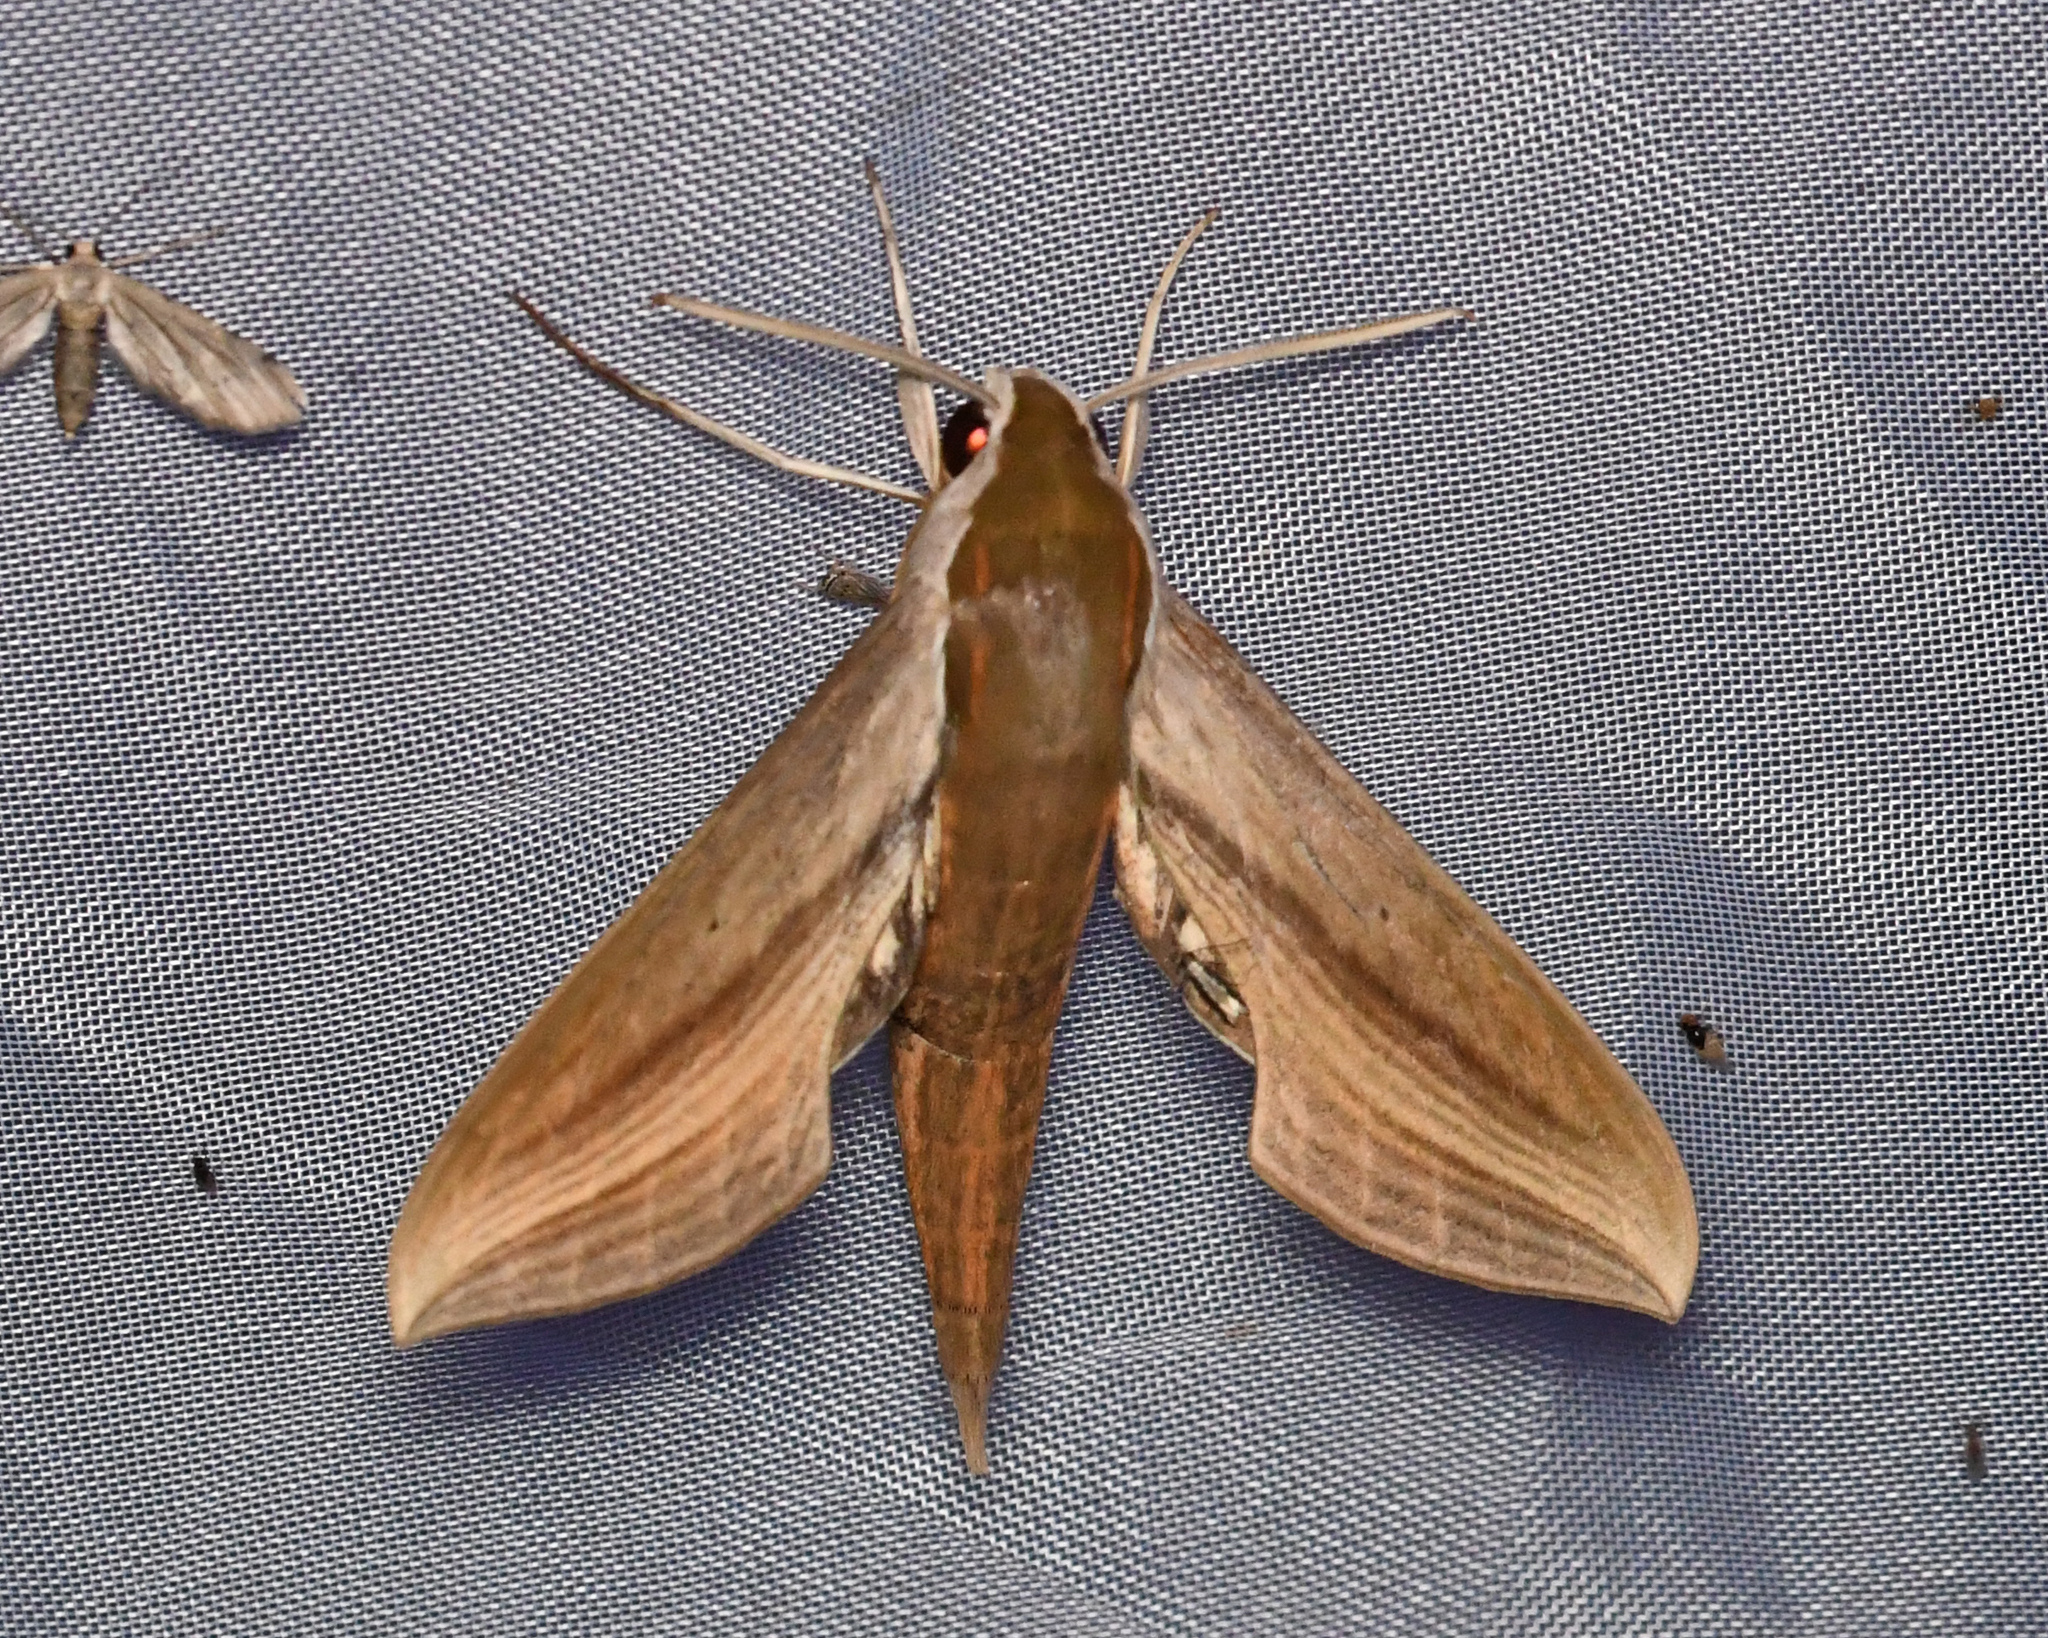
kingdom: Animalia
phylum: Arthropoda
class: Insecta
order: Lepidoptera
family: Sphingidae
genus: Xylophanes
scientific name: Xylophanes tersa
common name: Tersa sphinx
